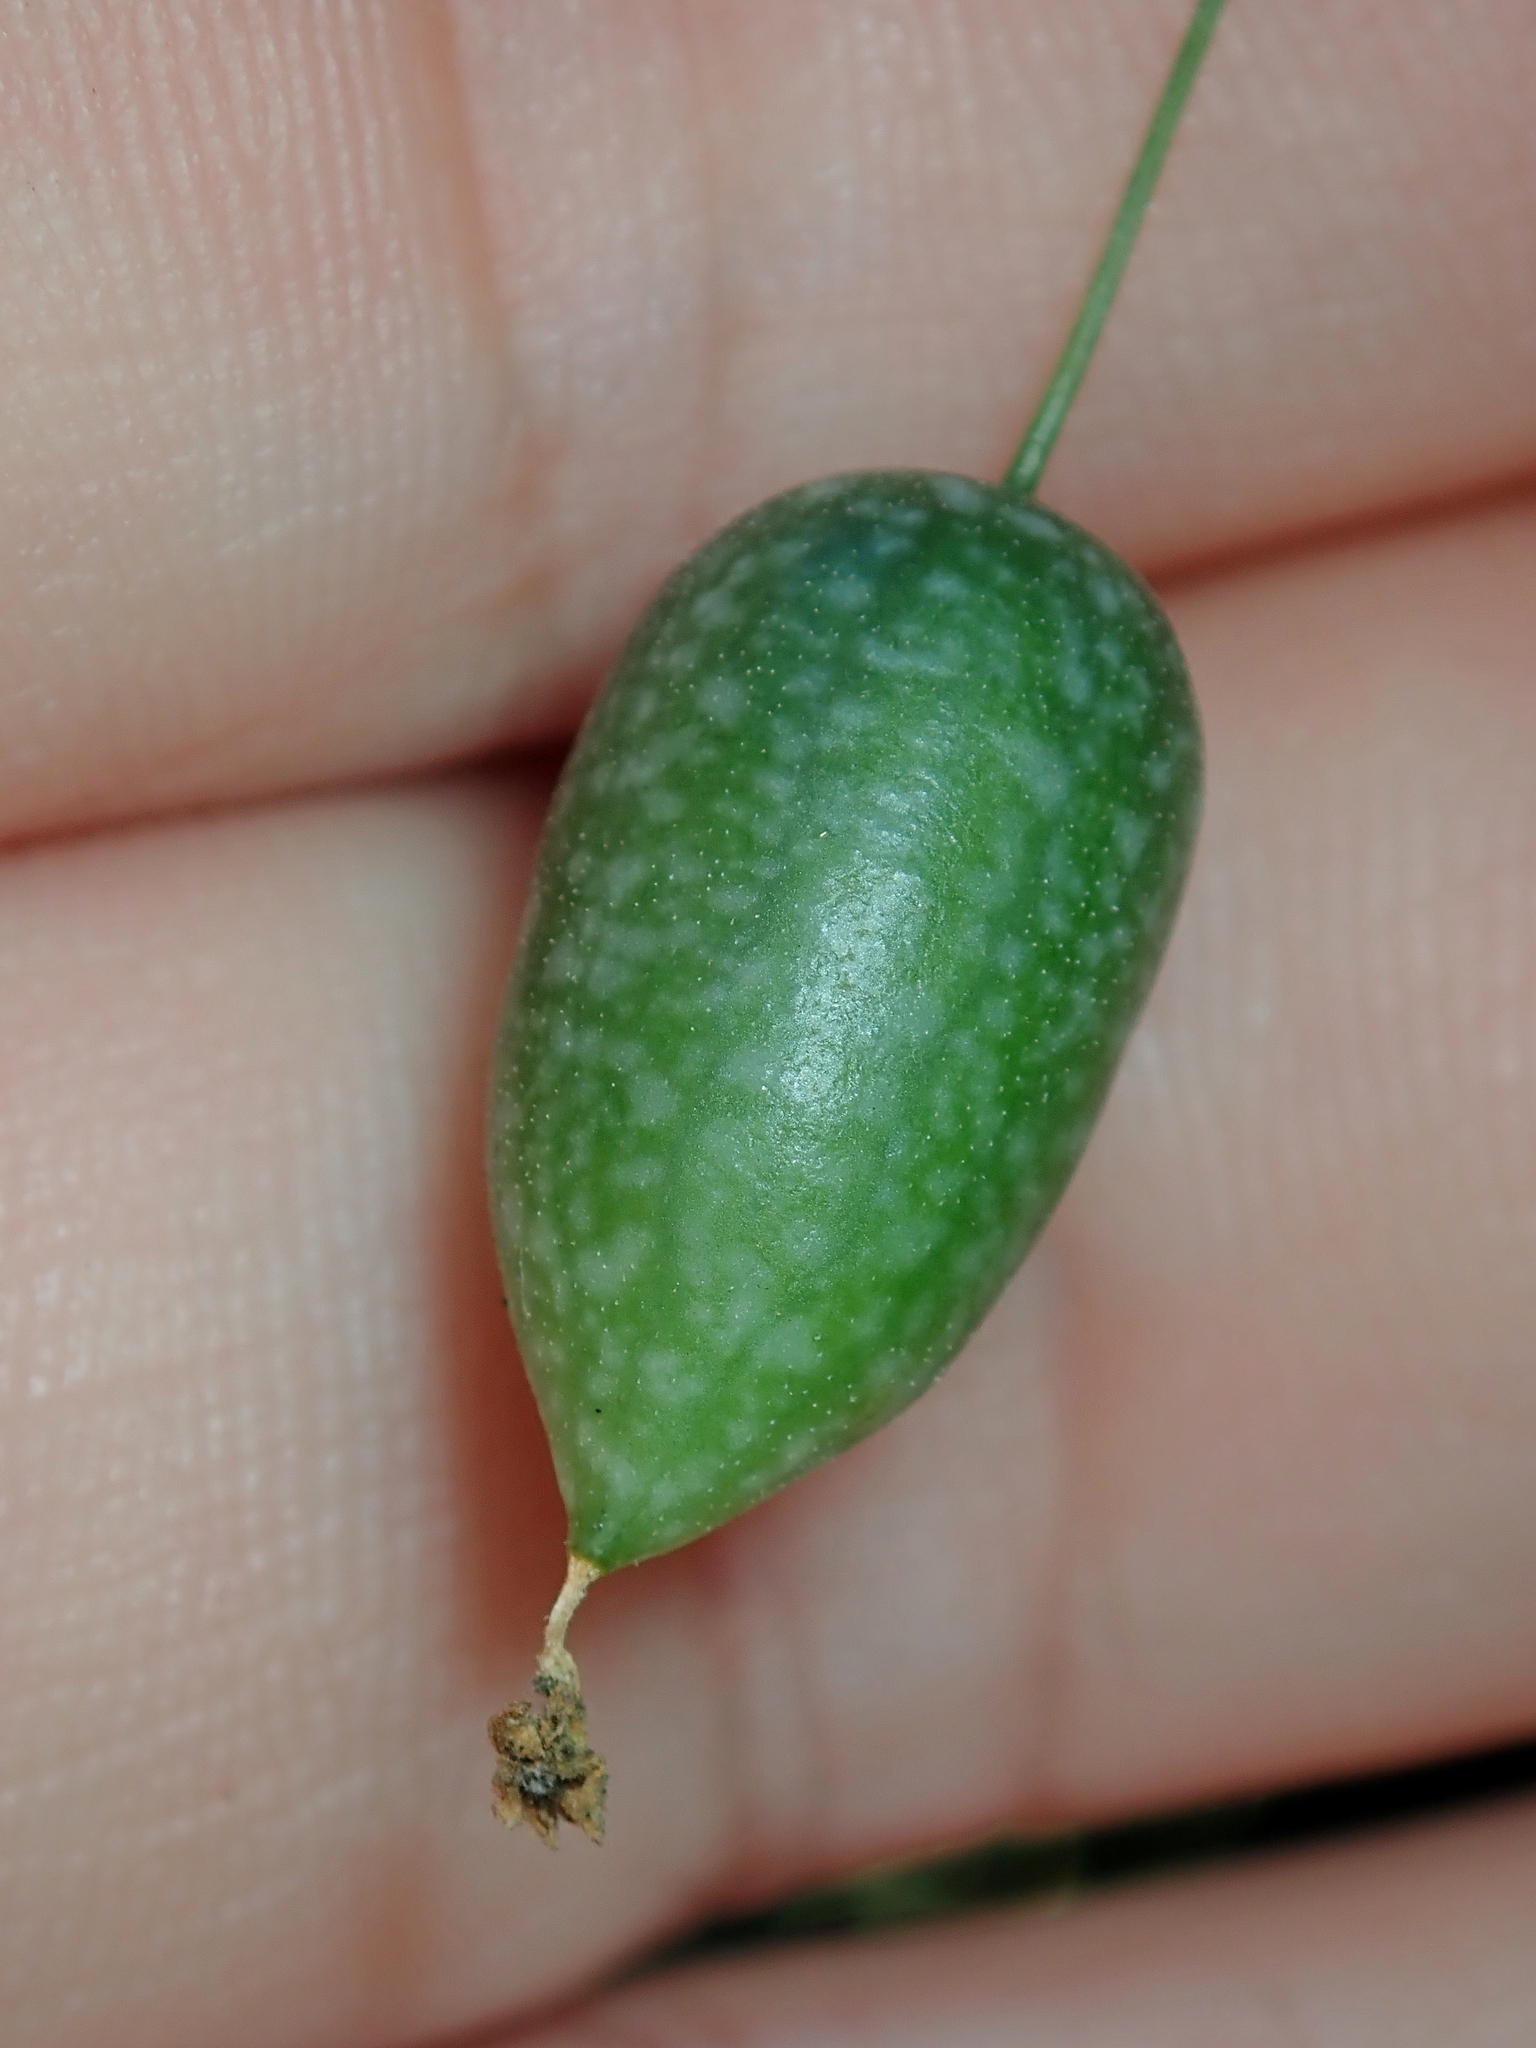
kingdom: Plantae
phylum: Tracheophyta
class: Magnoliopsida
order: Cucurbitales
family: Cucurbitaceae
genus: Melothria
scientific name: Melothria pendula
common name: Creeping-cucumber
